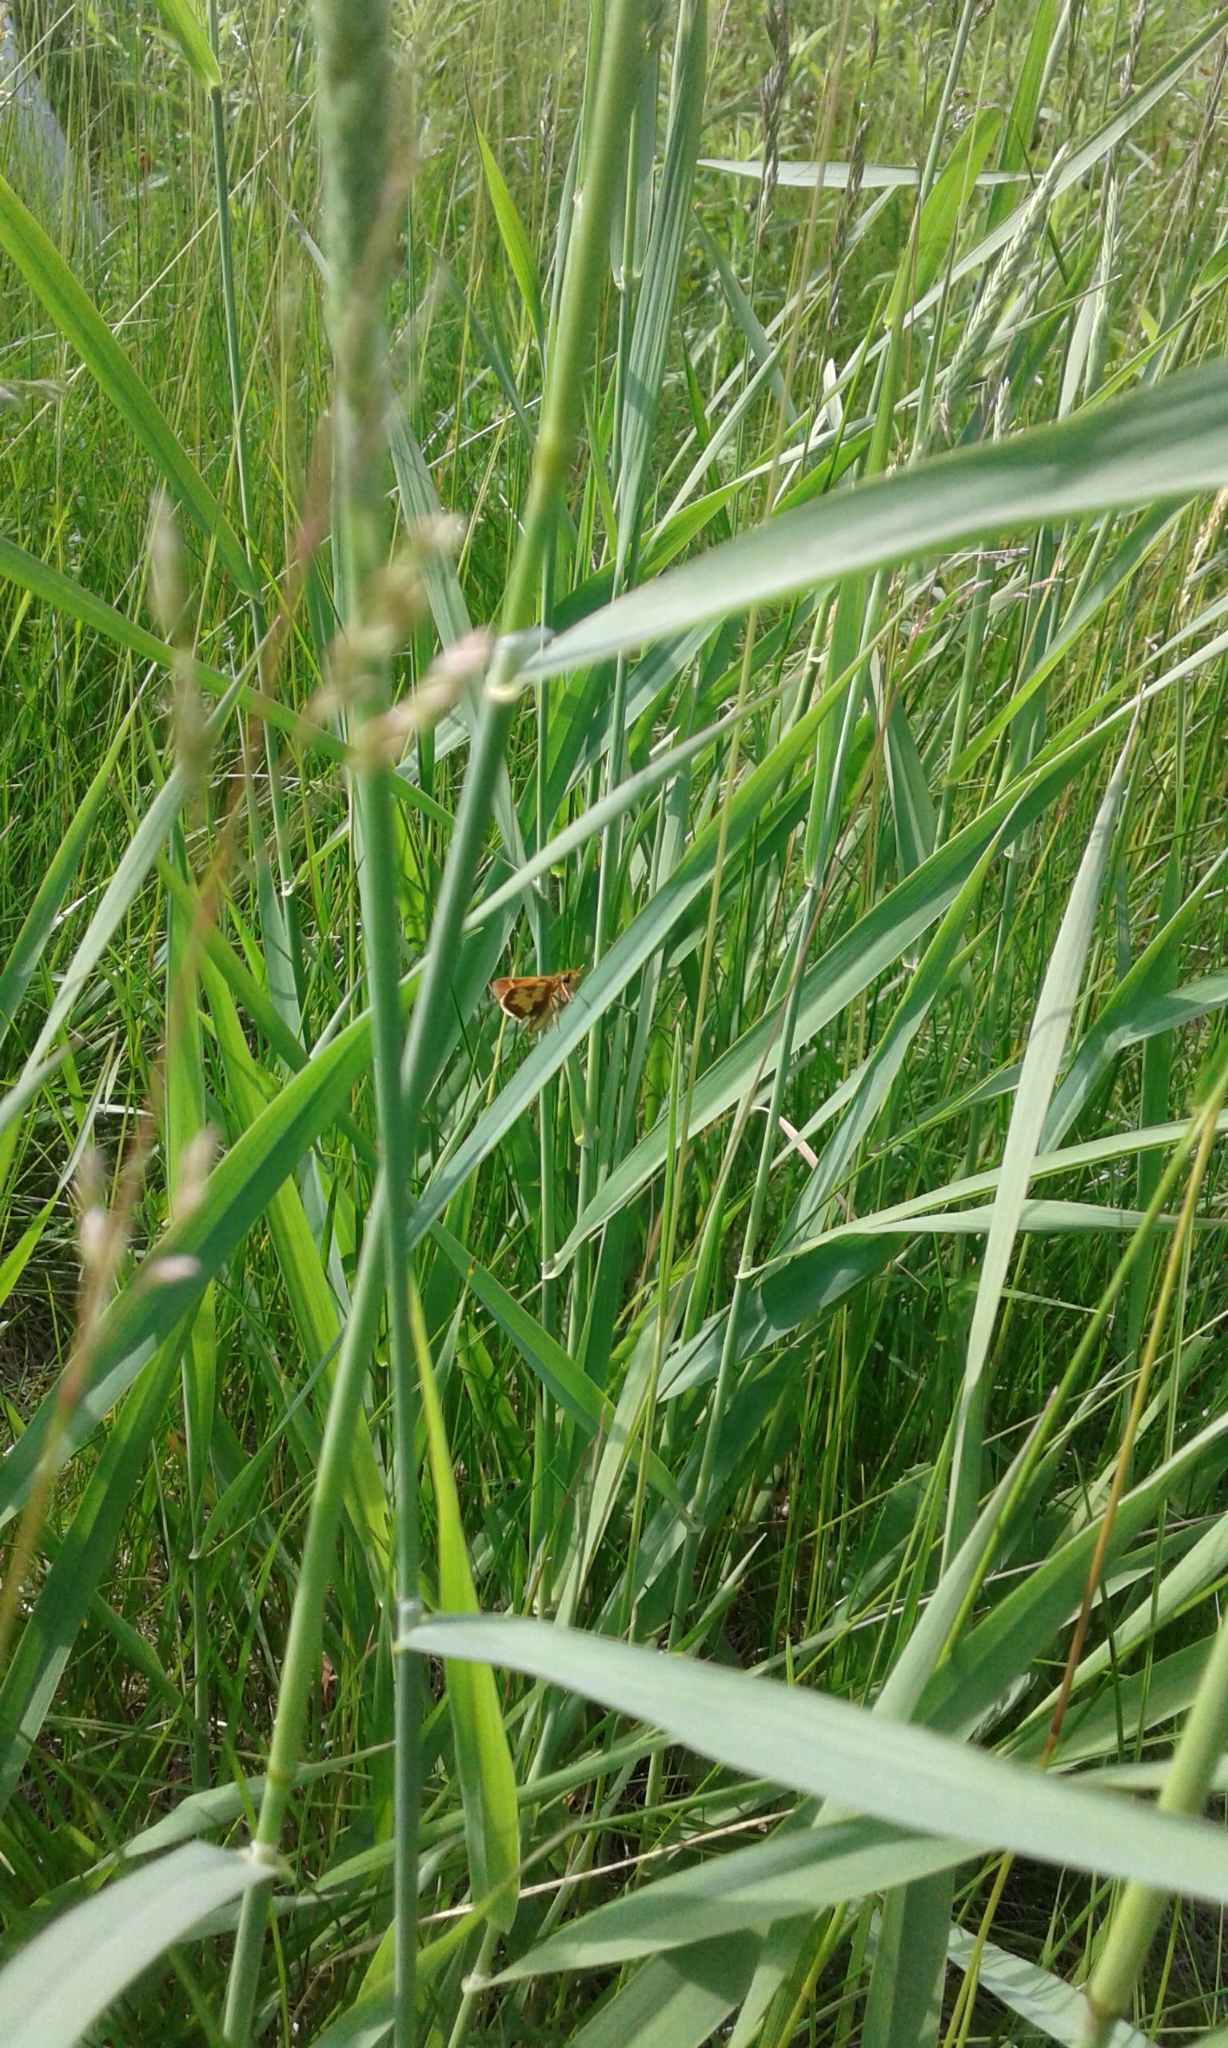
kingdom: Animalia
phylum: Arthropoda
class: Insecta
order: Lepidoptera
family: Hesperiidae
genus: Polites
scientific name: Polites coras
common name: Peck's skipper
